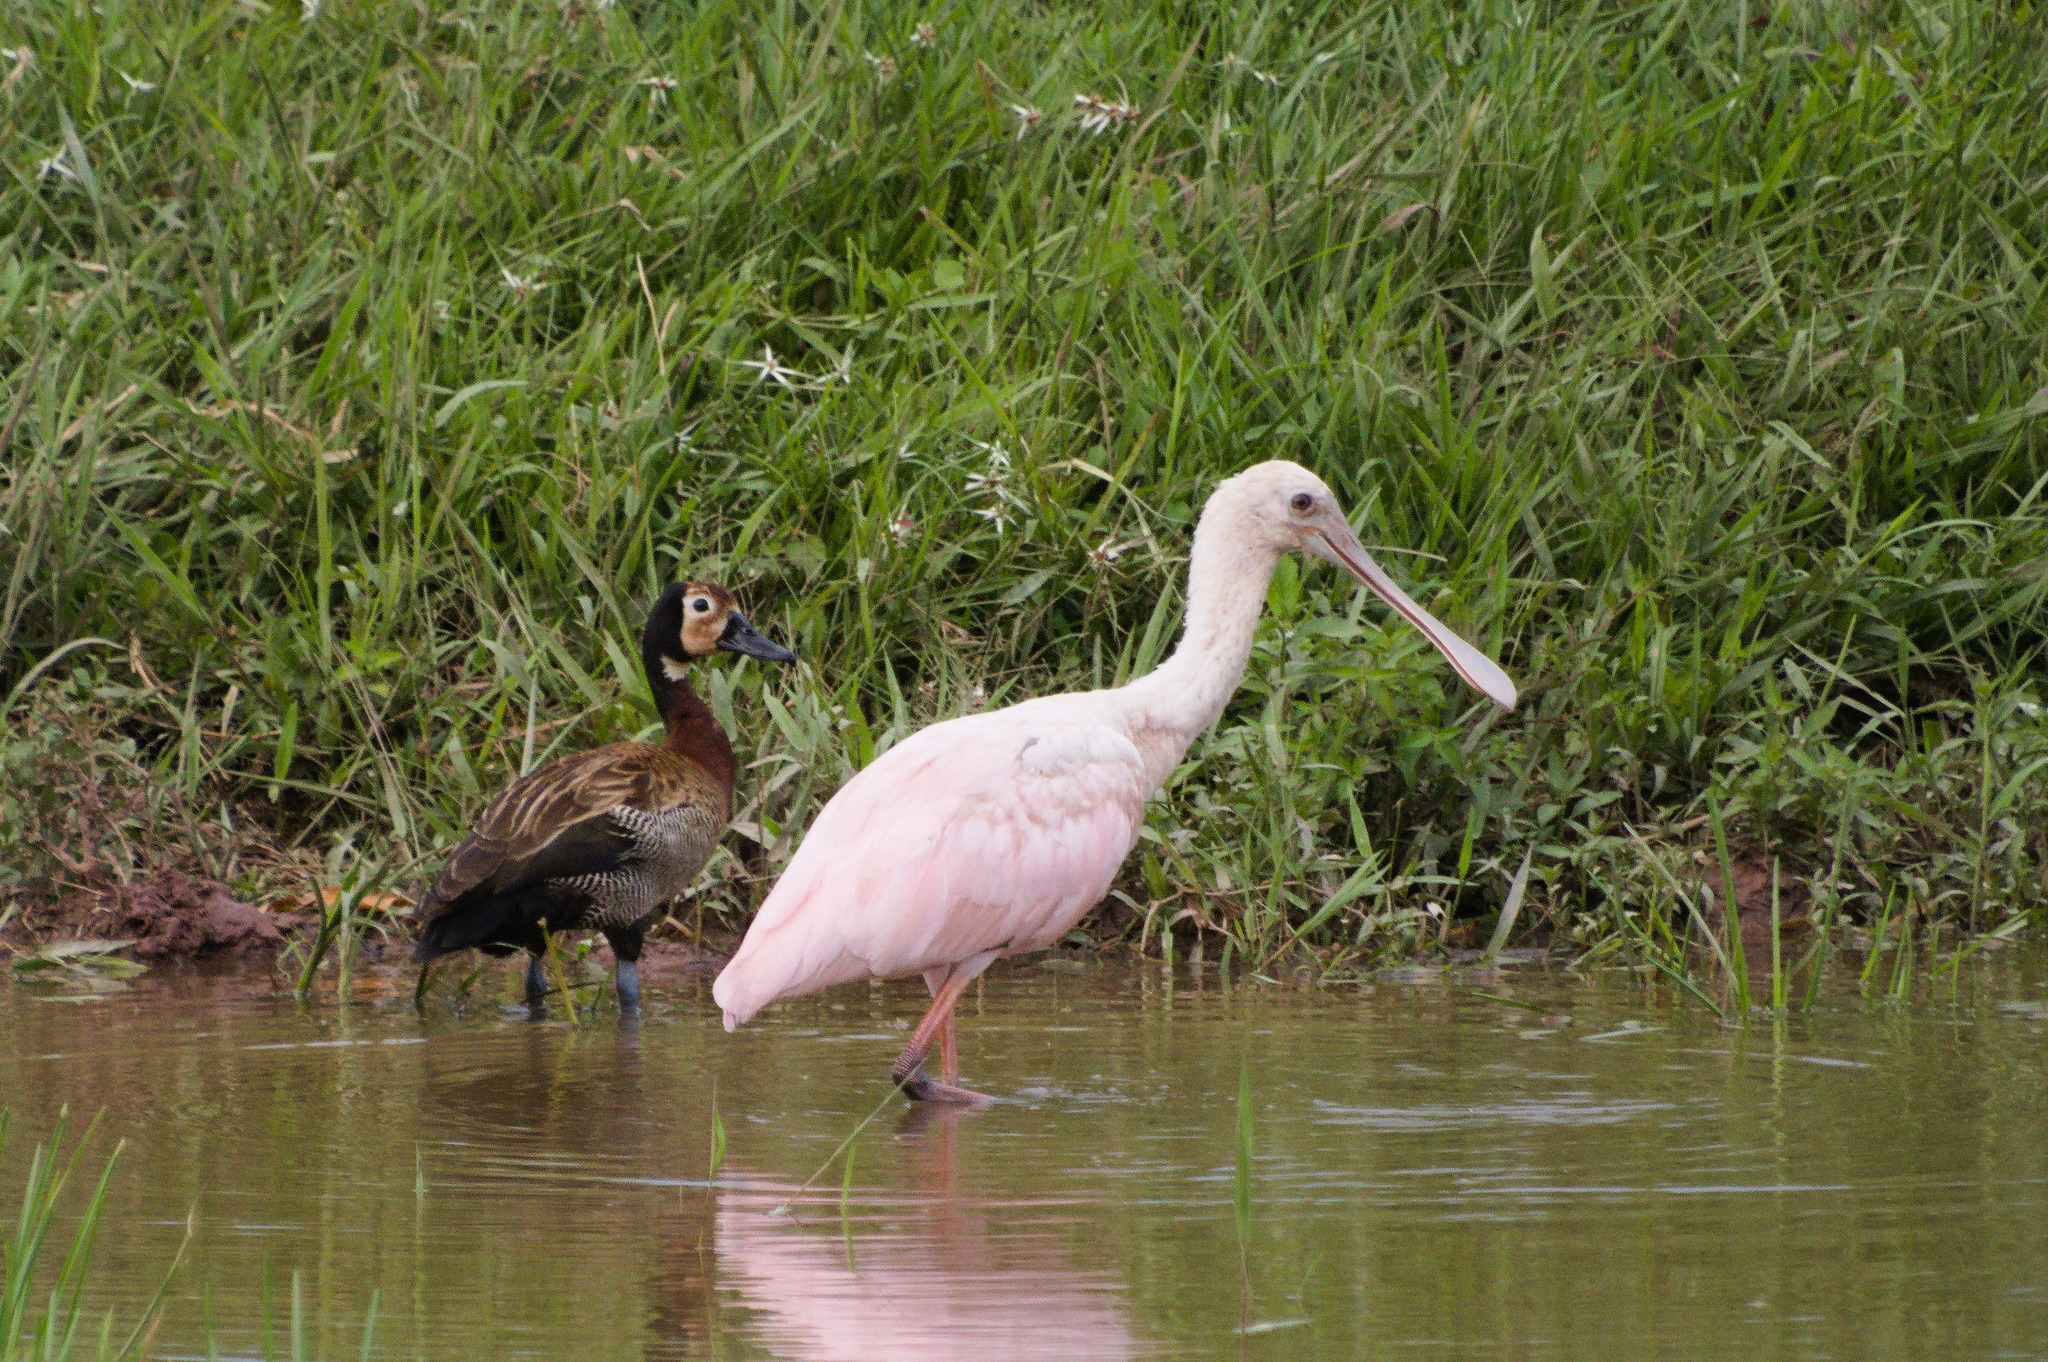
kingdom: Animalia
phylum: Chordata
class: Aves
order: Pelecaniformes
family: Threskiornithidae
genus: Platalea
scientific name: Platalea ajaja
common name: Roseate spoonbill
